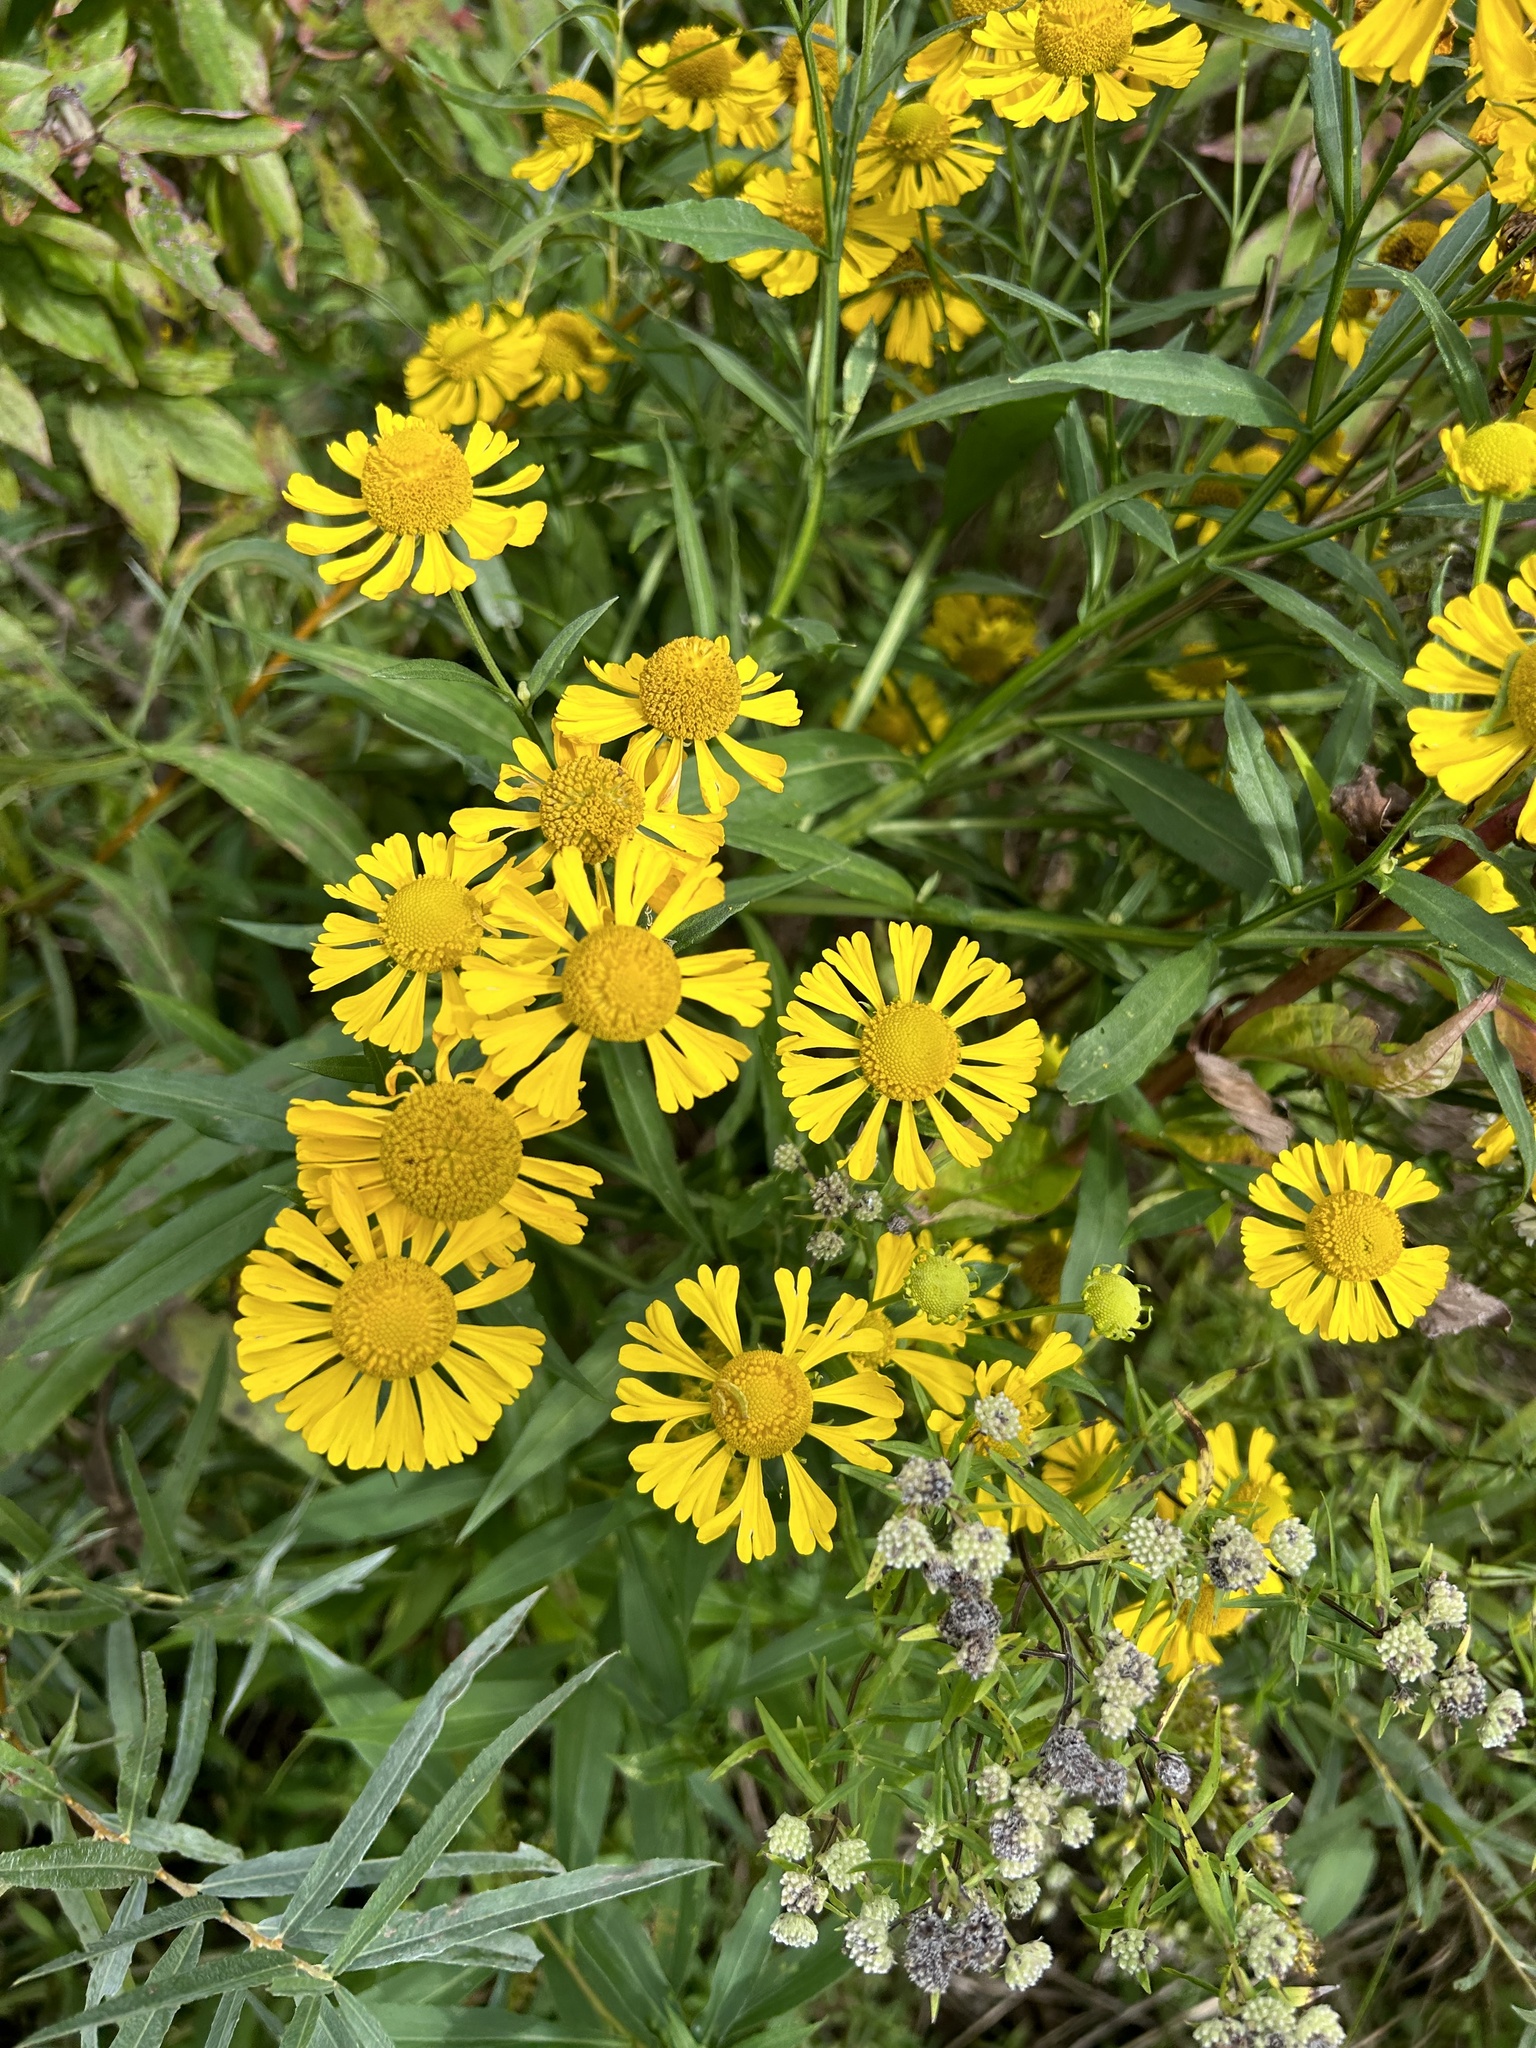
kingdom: Plantae
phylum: Tracheophyta
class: Magnoliopsida
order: Asterales
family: Asteraceae
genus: Helenium
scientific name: Helenium autumnale
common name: Sneezeweed
